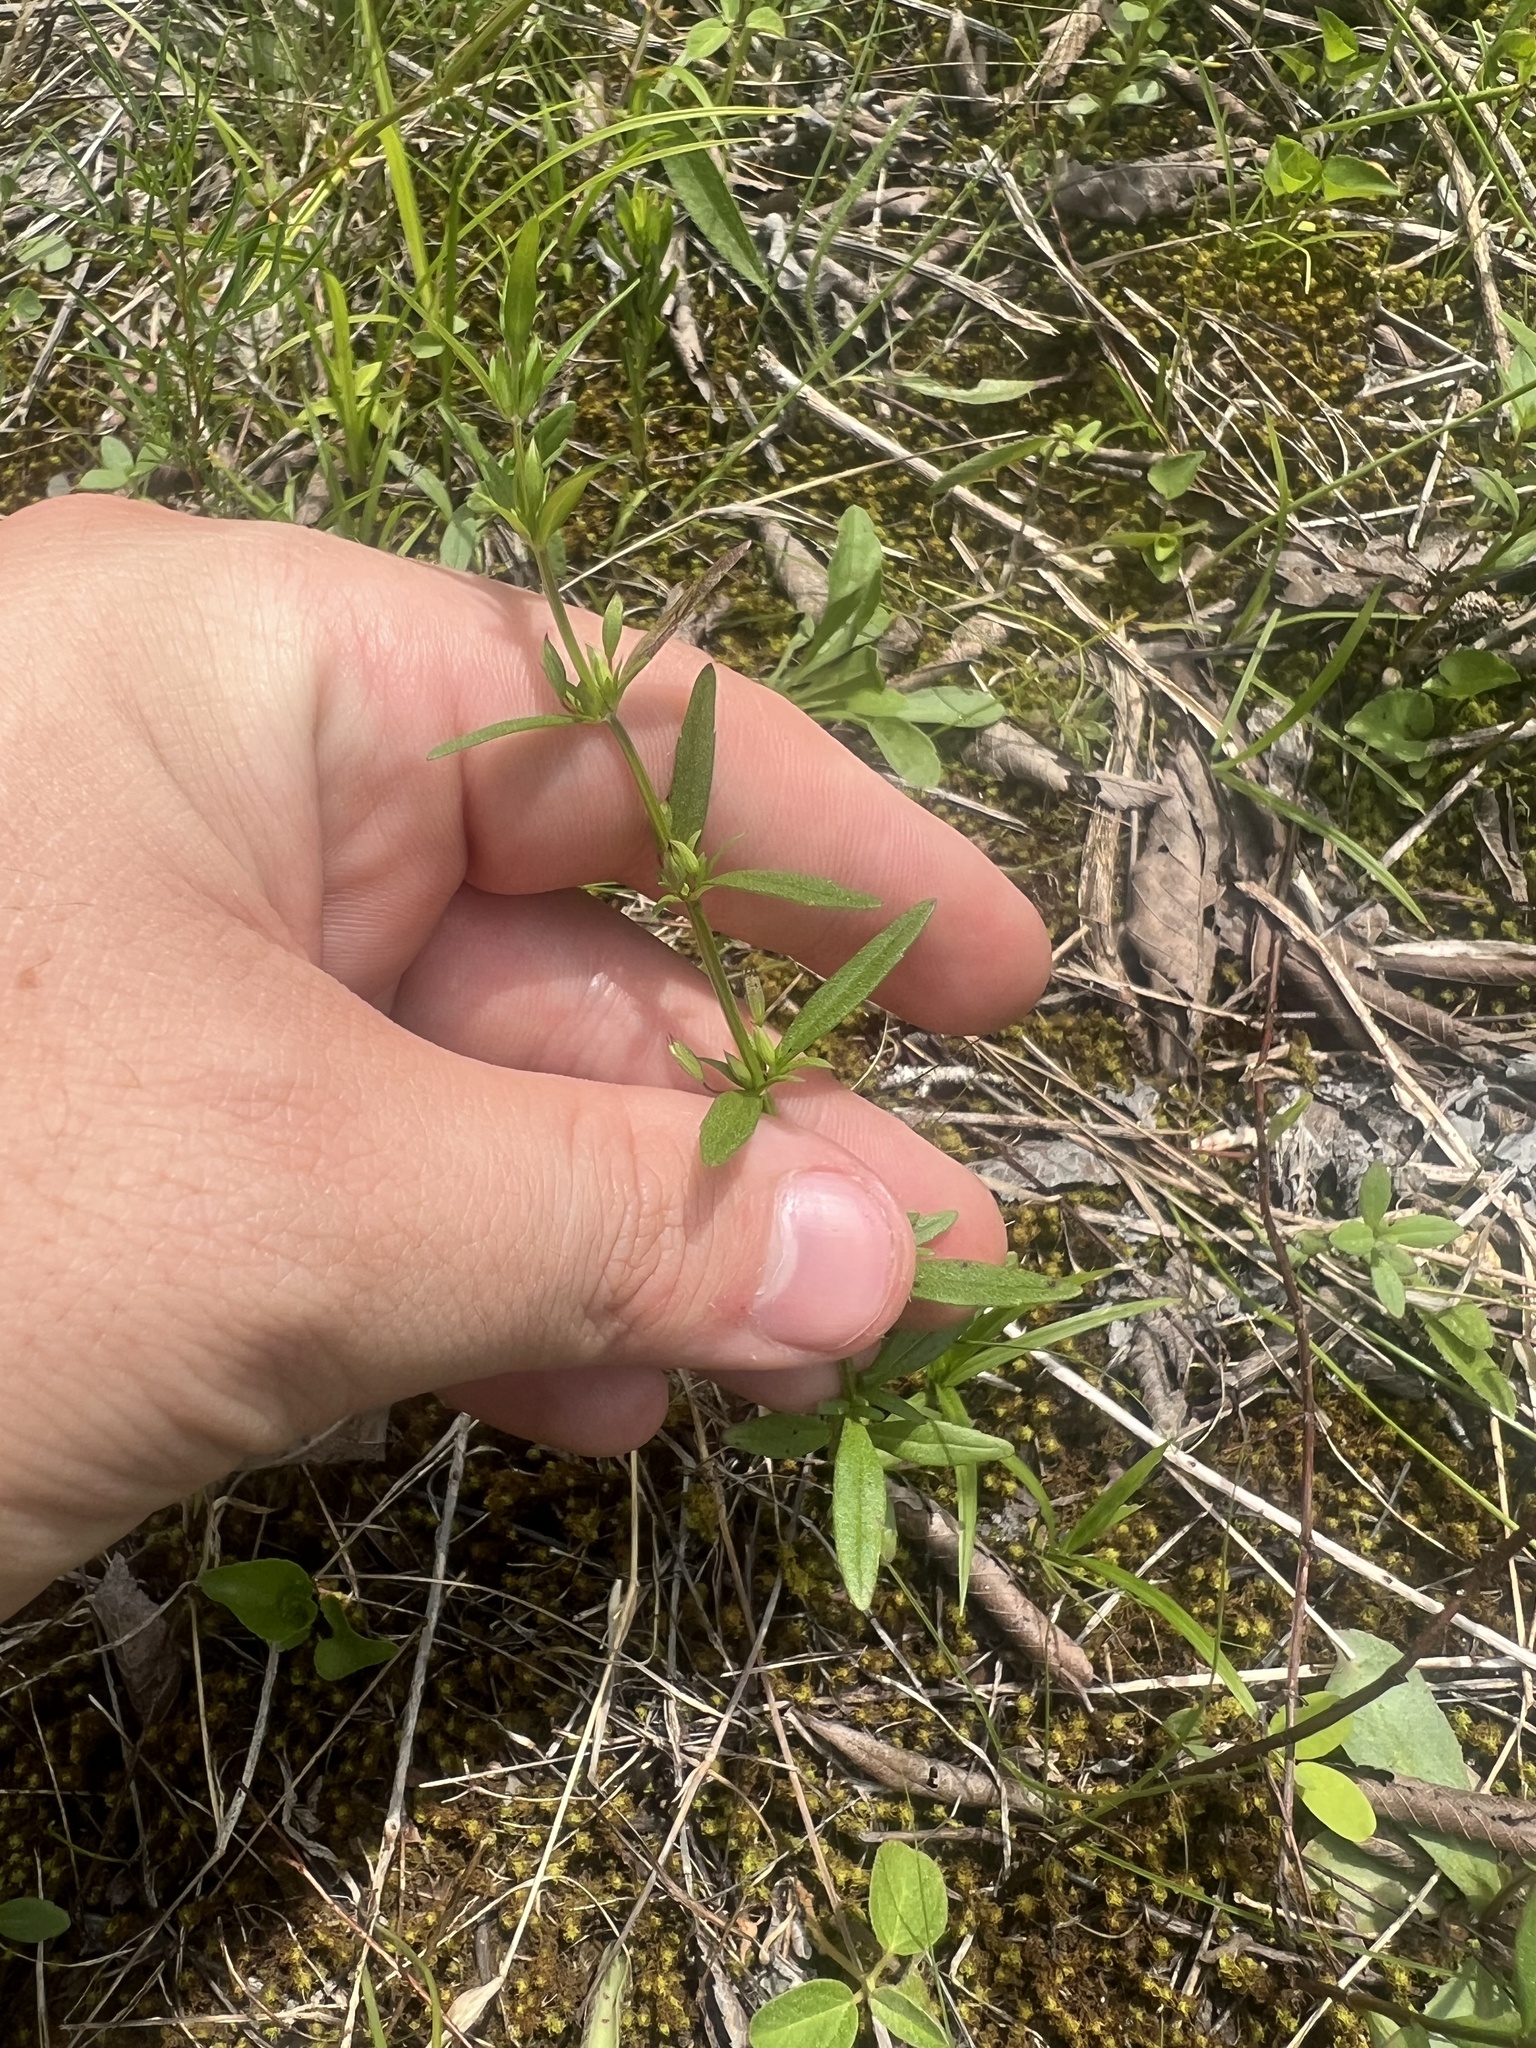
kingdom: Plantae
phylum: Tracheophyta
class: Magnoliopsida
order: Lamiales
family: Lamiaceae
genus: Clinopodium
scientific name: Clinopodium arkansanum
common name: Limestone calamint
